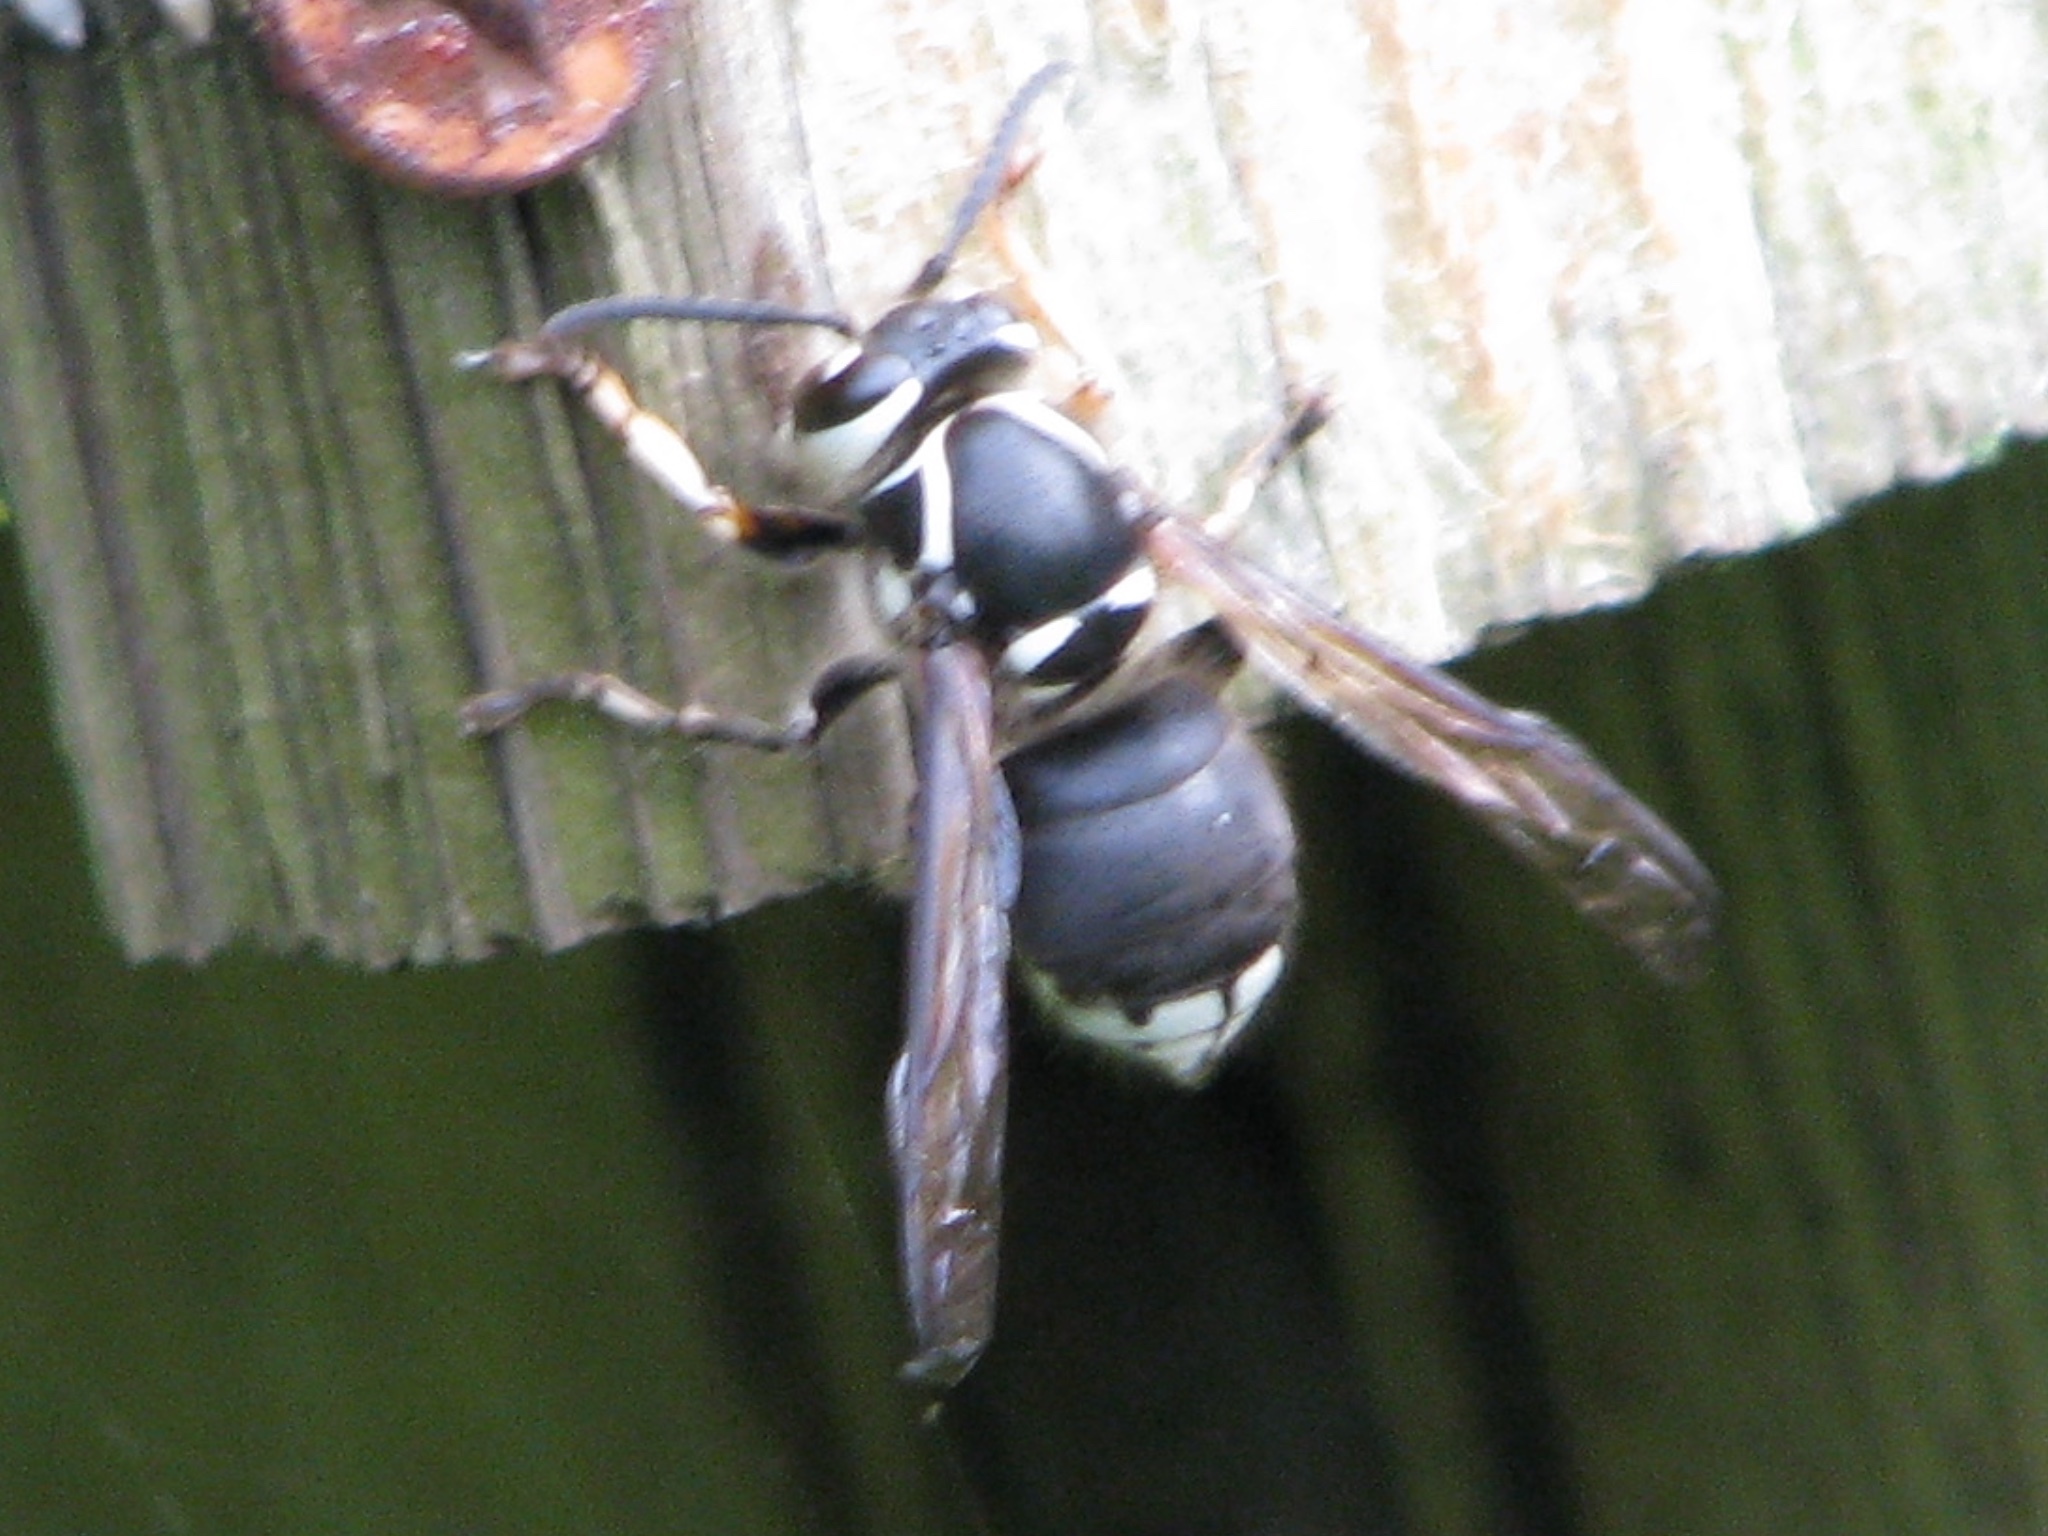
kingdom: Animalia
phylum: Arthropoda
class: Insecta
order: Hymenoptera
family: Vespidae
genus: Dolichovespula
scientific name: Dolichovespula maculata
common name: Bald-faced hornet
